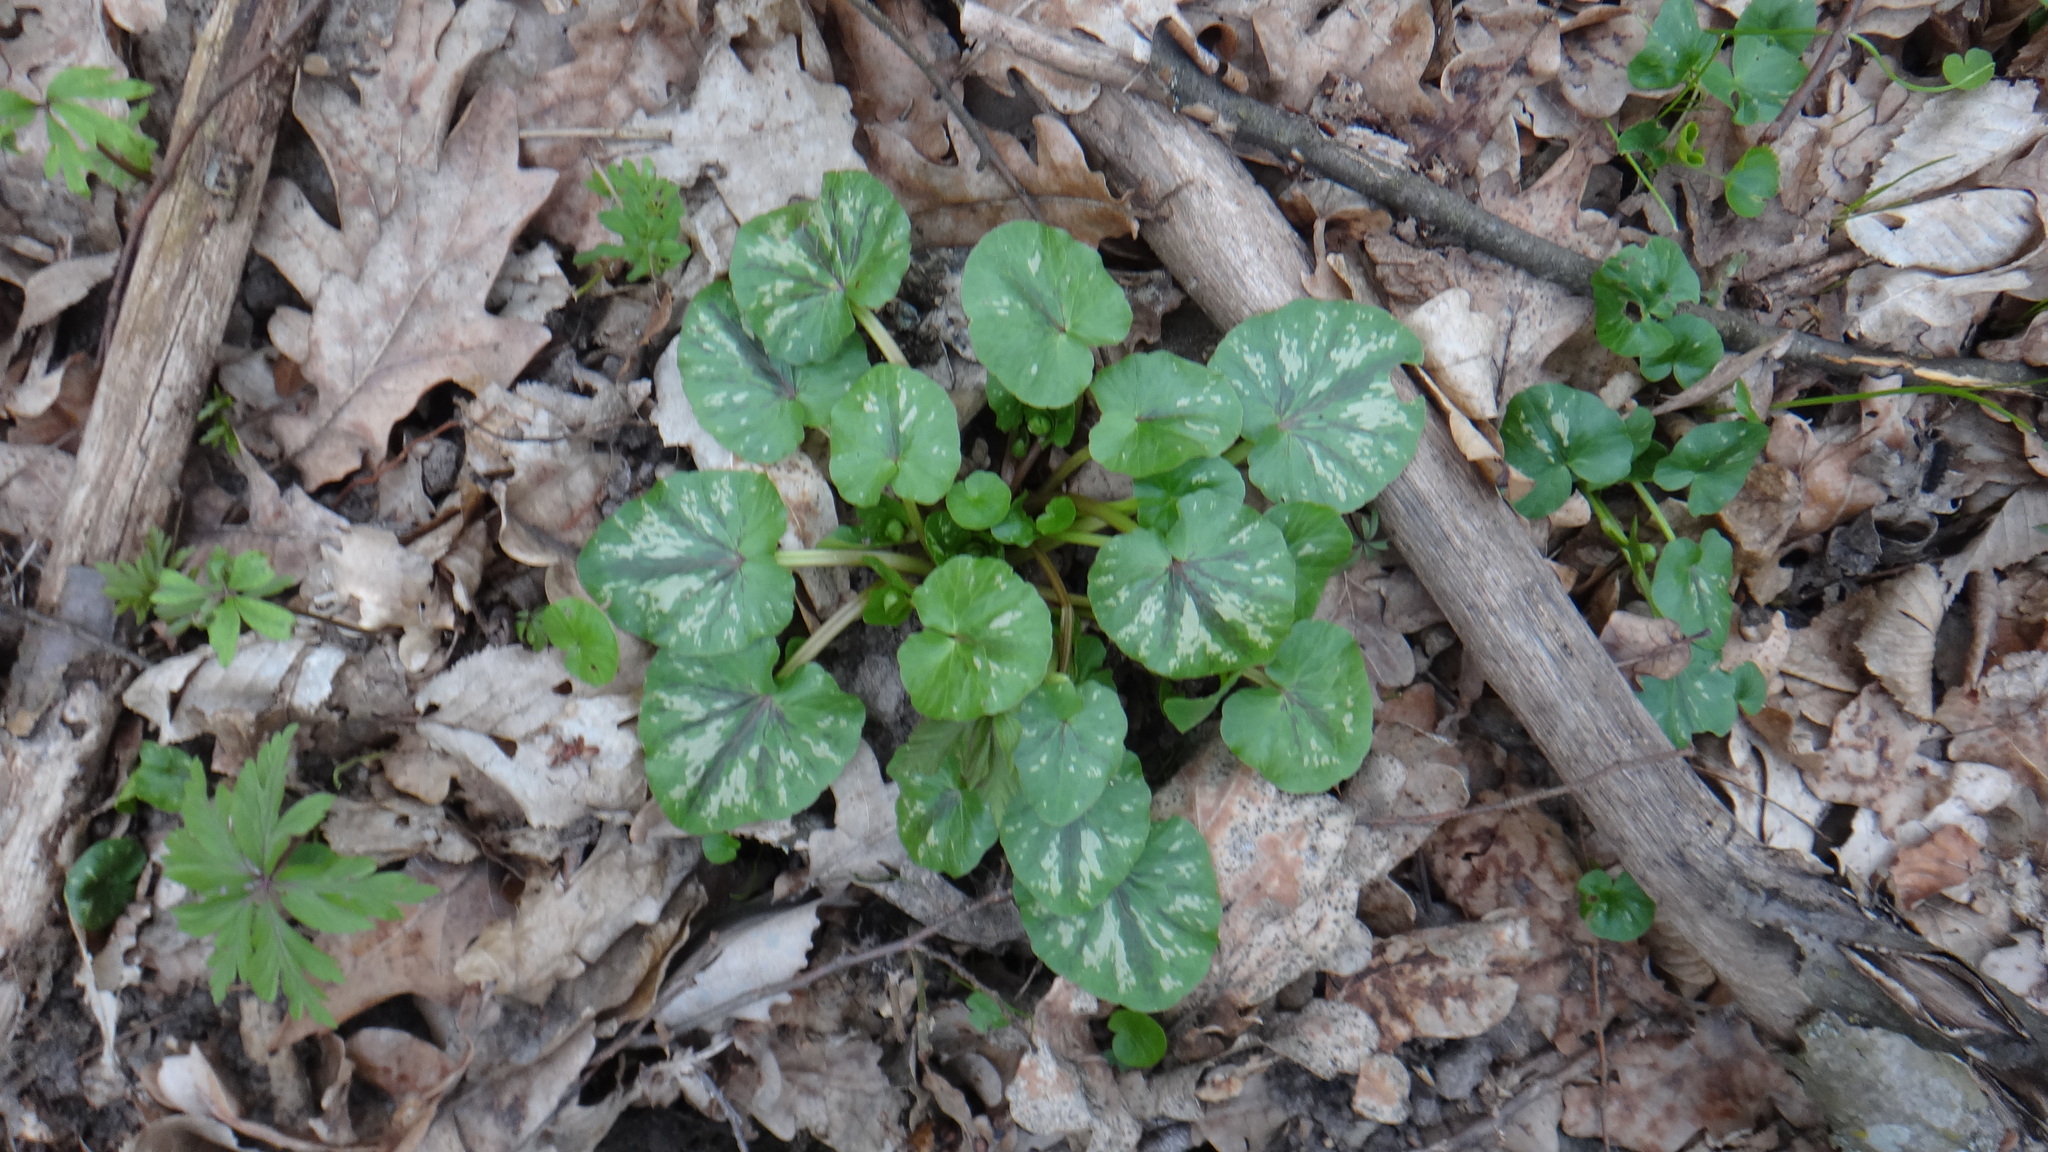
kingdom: Plantae
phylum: Tracheophyta
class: Magnoliopsida
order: Ranunculales
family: Ranunculaceae
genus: Ficaria
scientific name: Ficaria verna
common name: Lesser celandine
